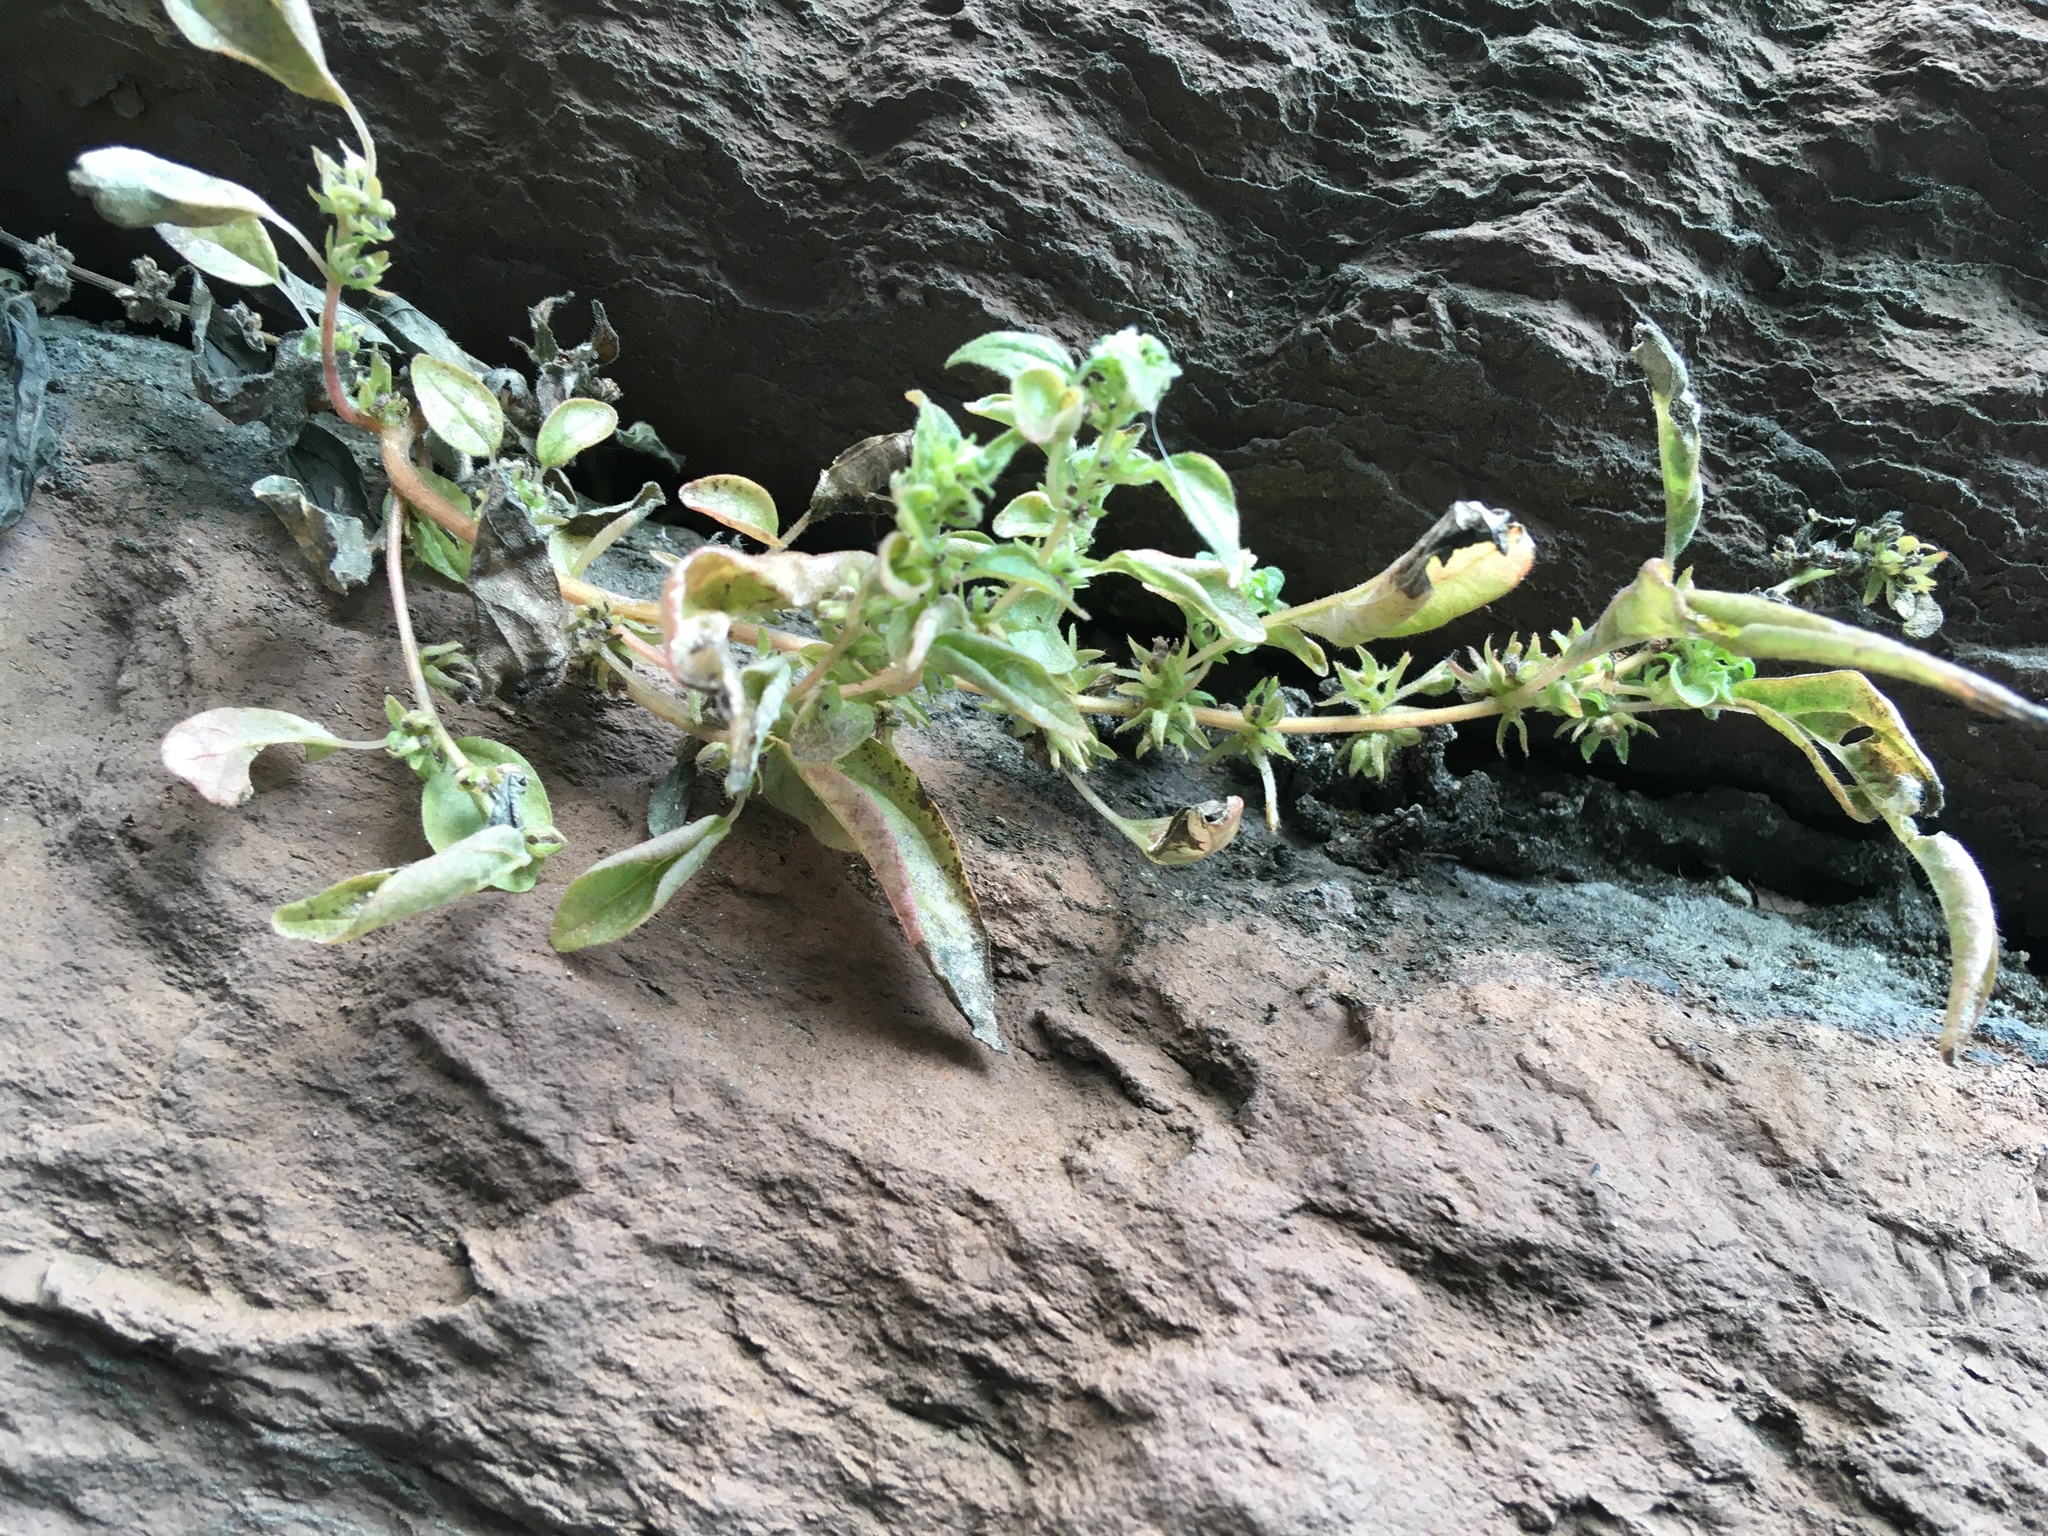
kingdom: Plantae
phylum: Tracheophyta
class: Magnoliopsida
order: Rosales
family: Urticaceae
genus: Parietaria
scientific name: Parietaria pensylvanica
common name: Pennsylvania pellitory
